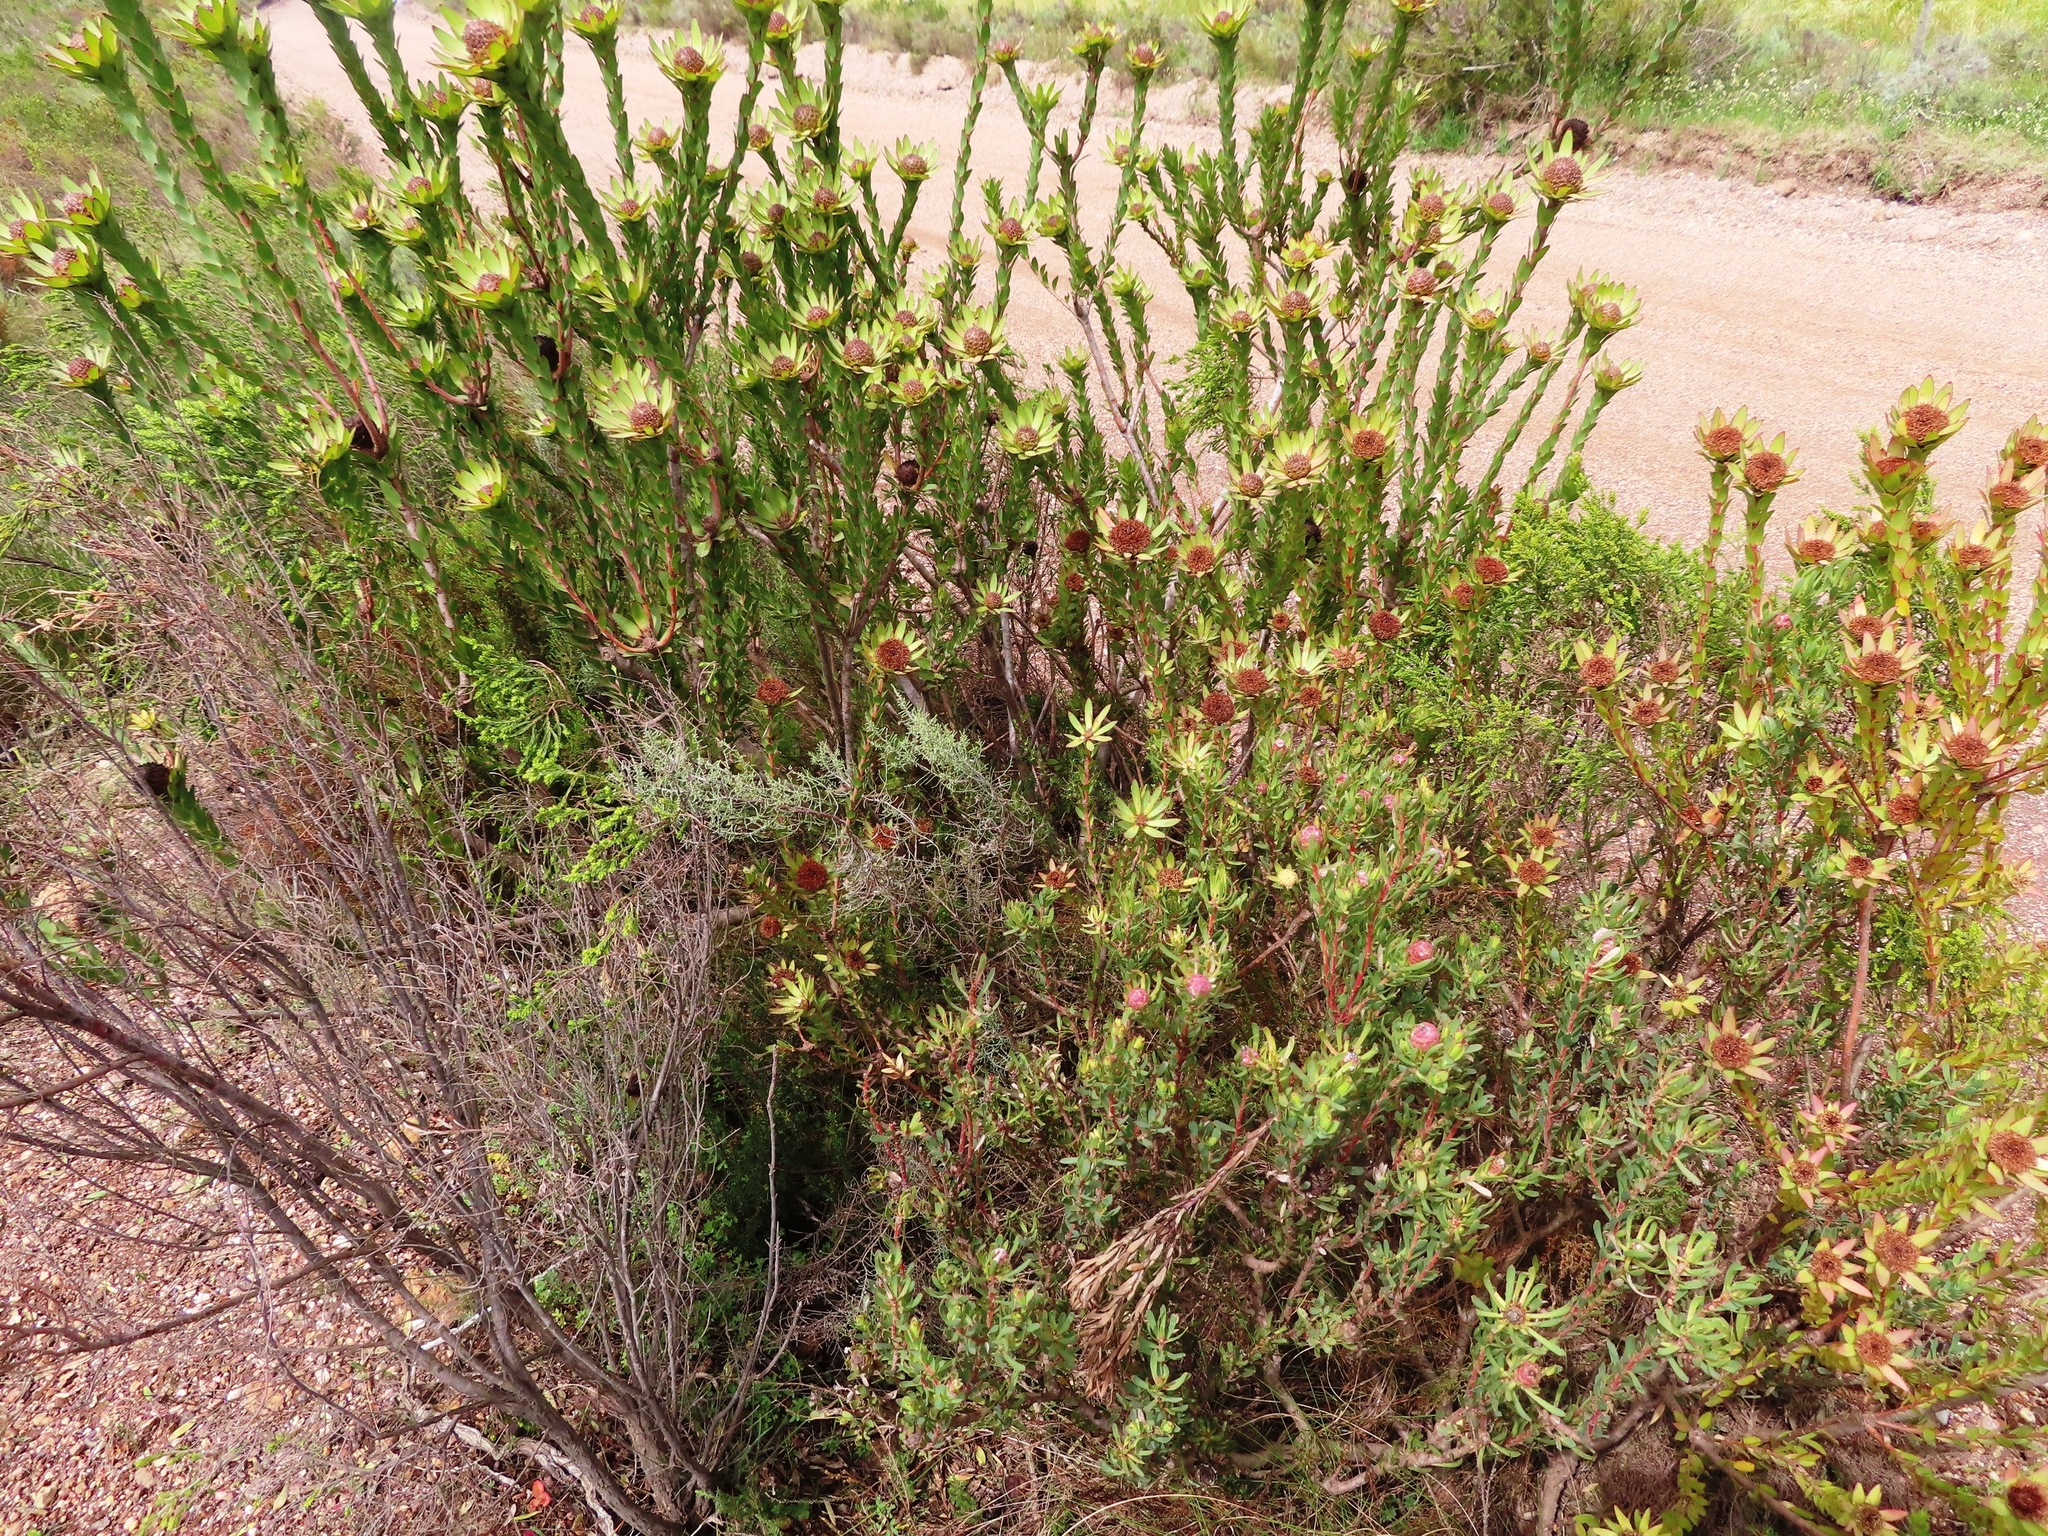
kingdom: Plantae
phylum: Tracheophyta
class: Magnoliopsida
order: Proteales
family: Proteaceae
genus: Leucadendron
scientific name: Leucadendron elimense
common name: Elim conebush
